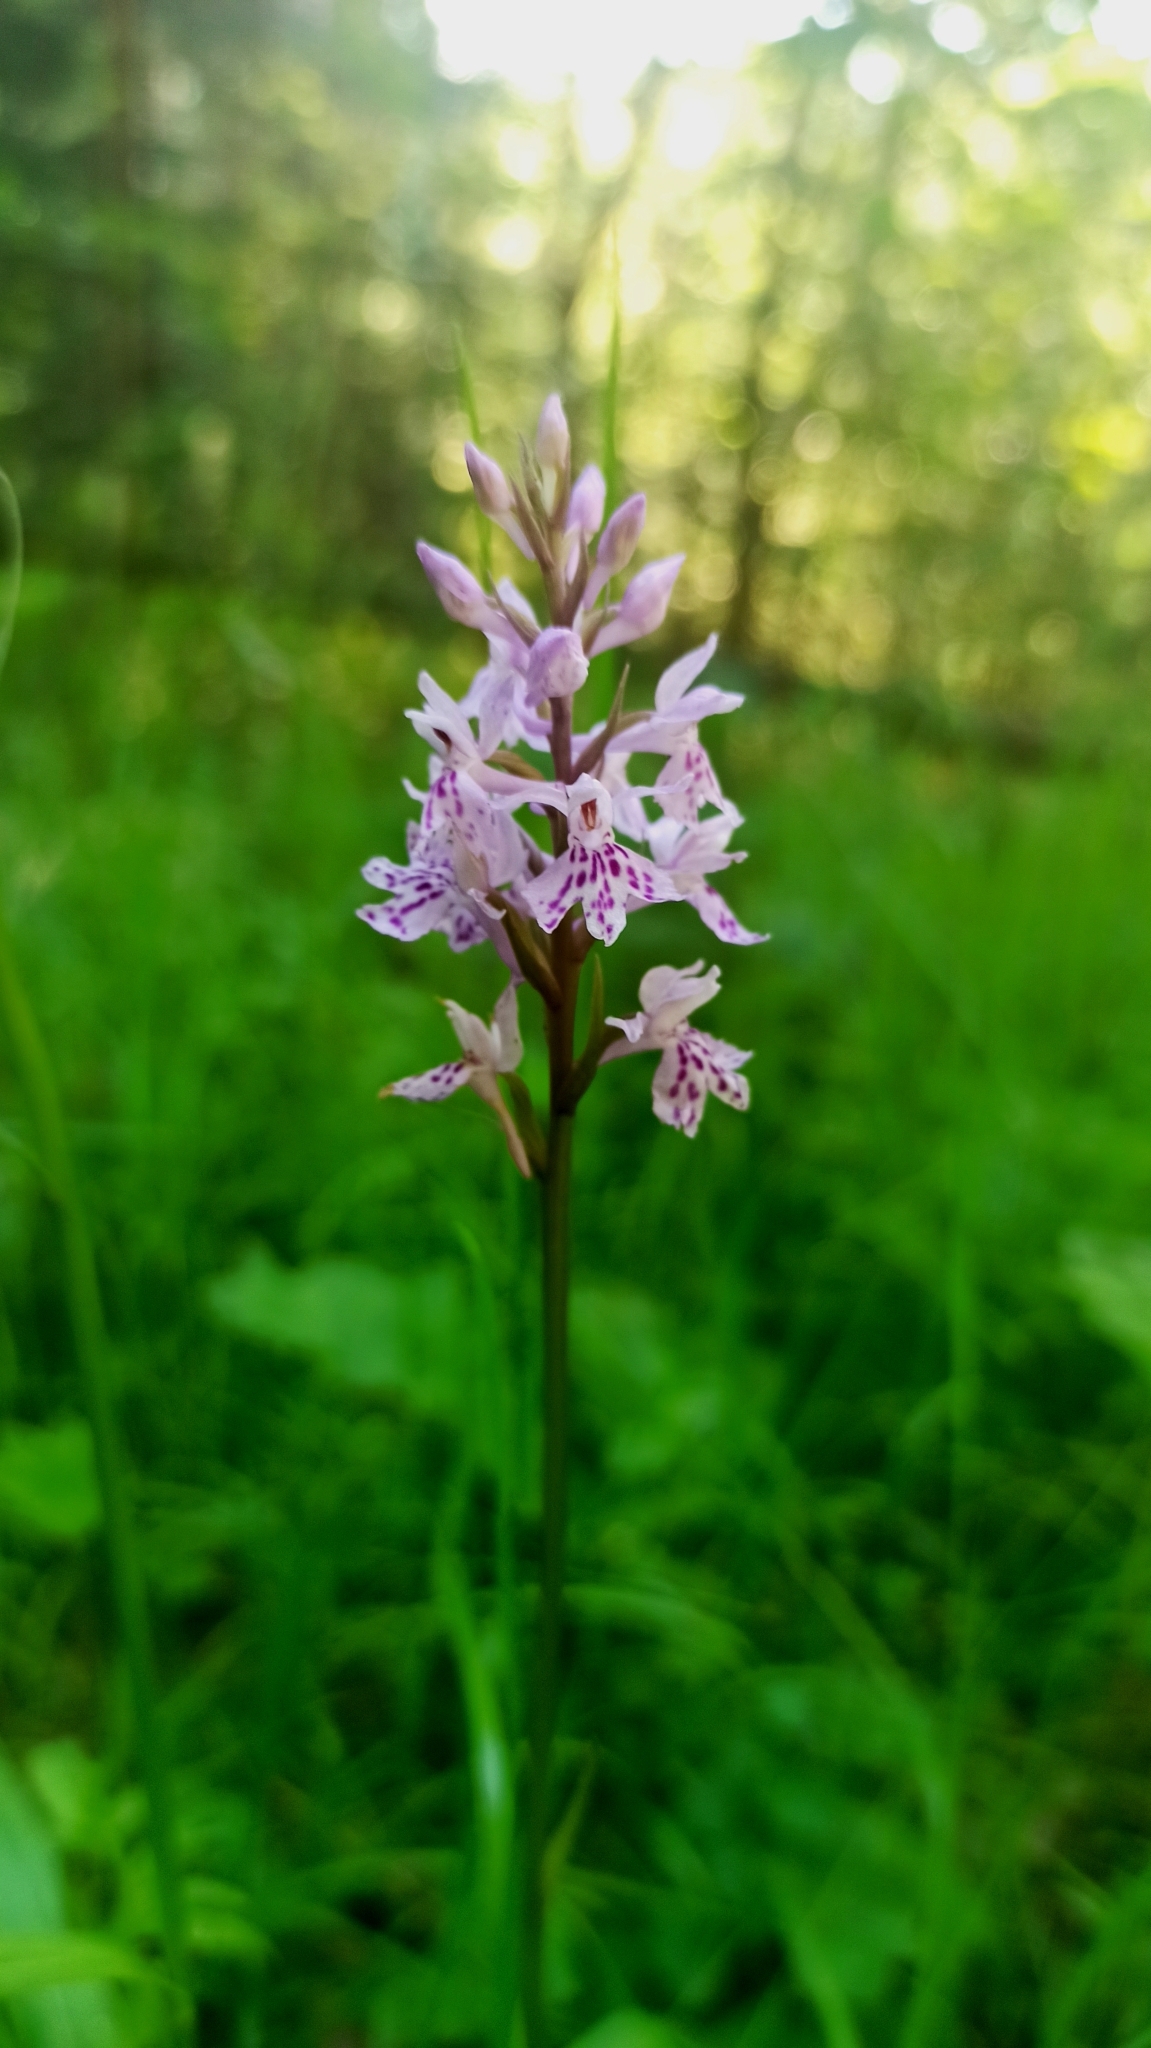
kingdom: Plantae
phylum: Tracheophyta
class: Liliopsida
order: Asparagales
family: Orchidaceae
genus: Dactylorhiza
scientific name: Dactylorhiza maculata
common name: Heath spotted-orchid
